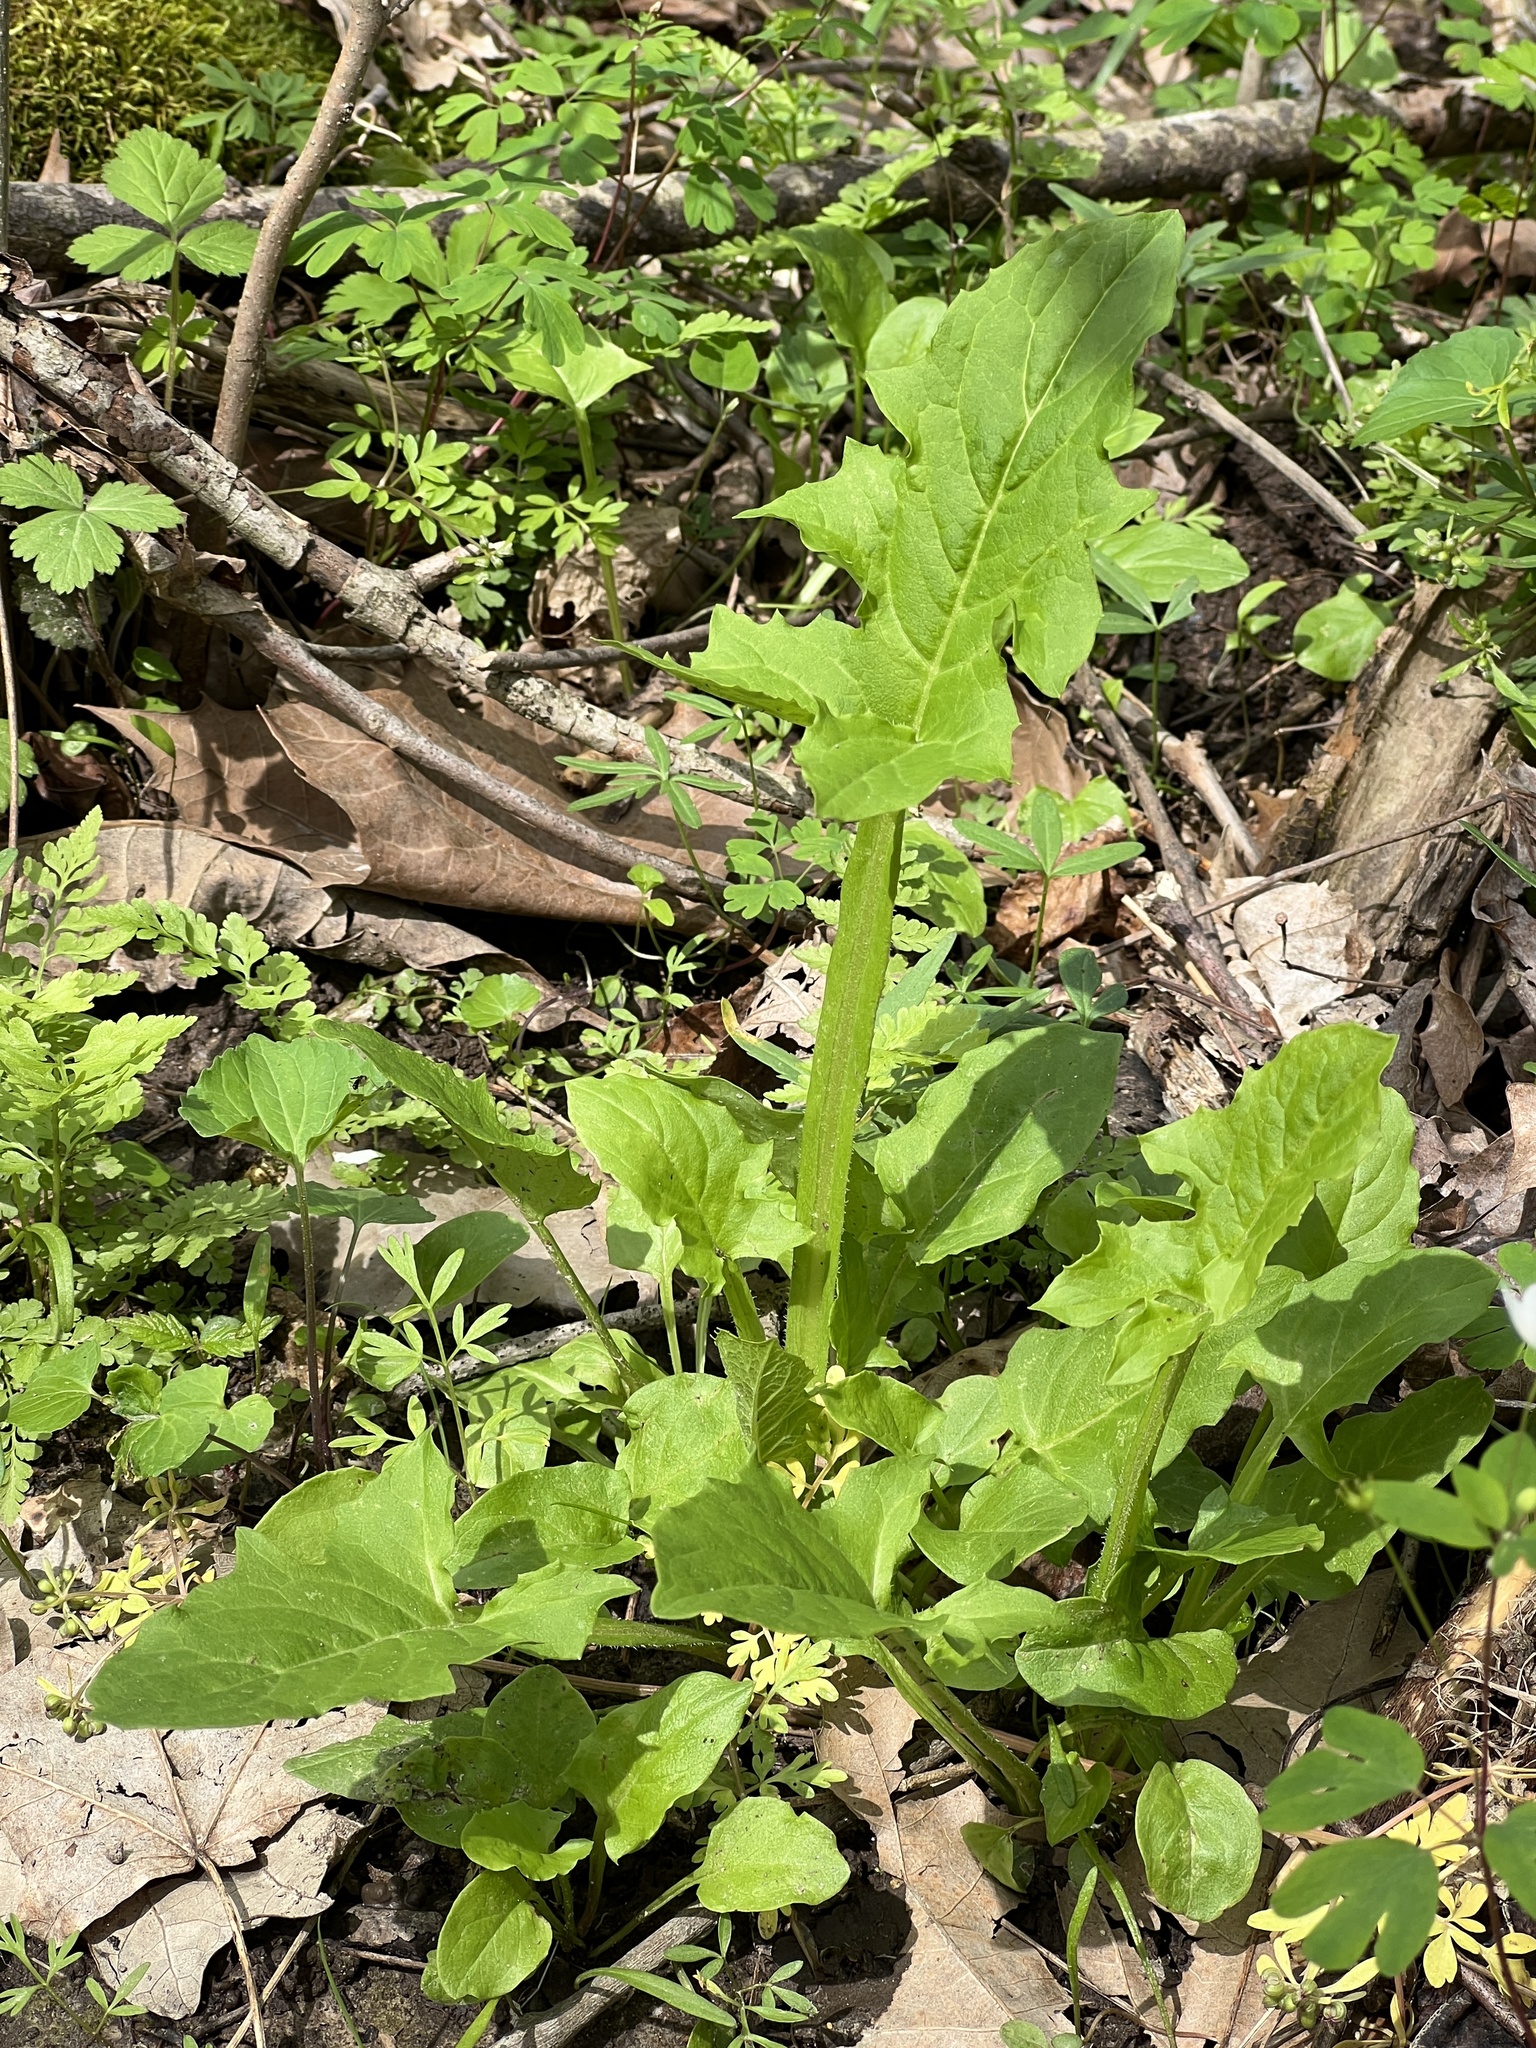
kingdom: Plantae
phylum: Tracheophyta
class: Magnoliopsida
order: Asterales
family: Asteraceae
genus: Nabalus
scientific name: Nabalus crepidineus
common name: Nodding rattlesnakeroot
